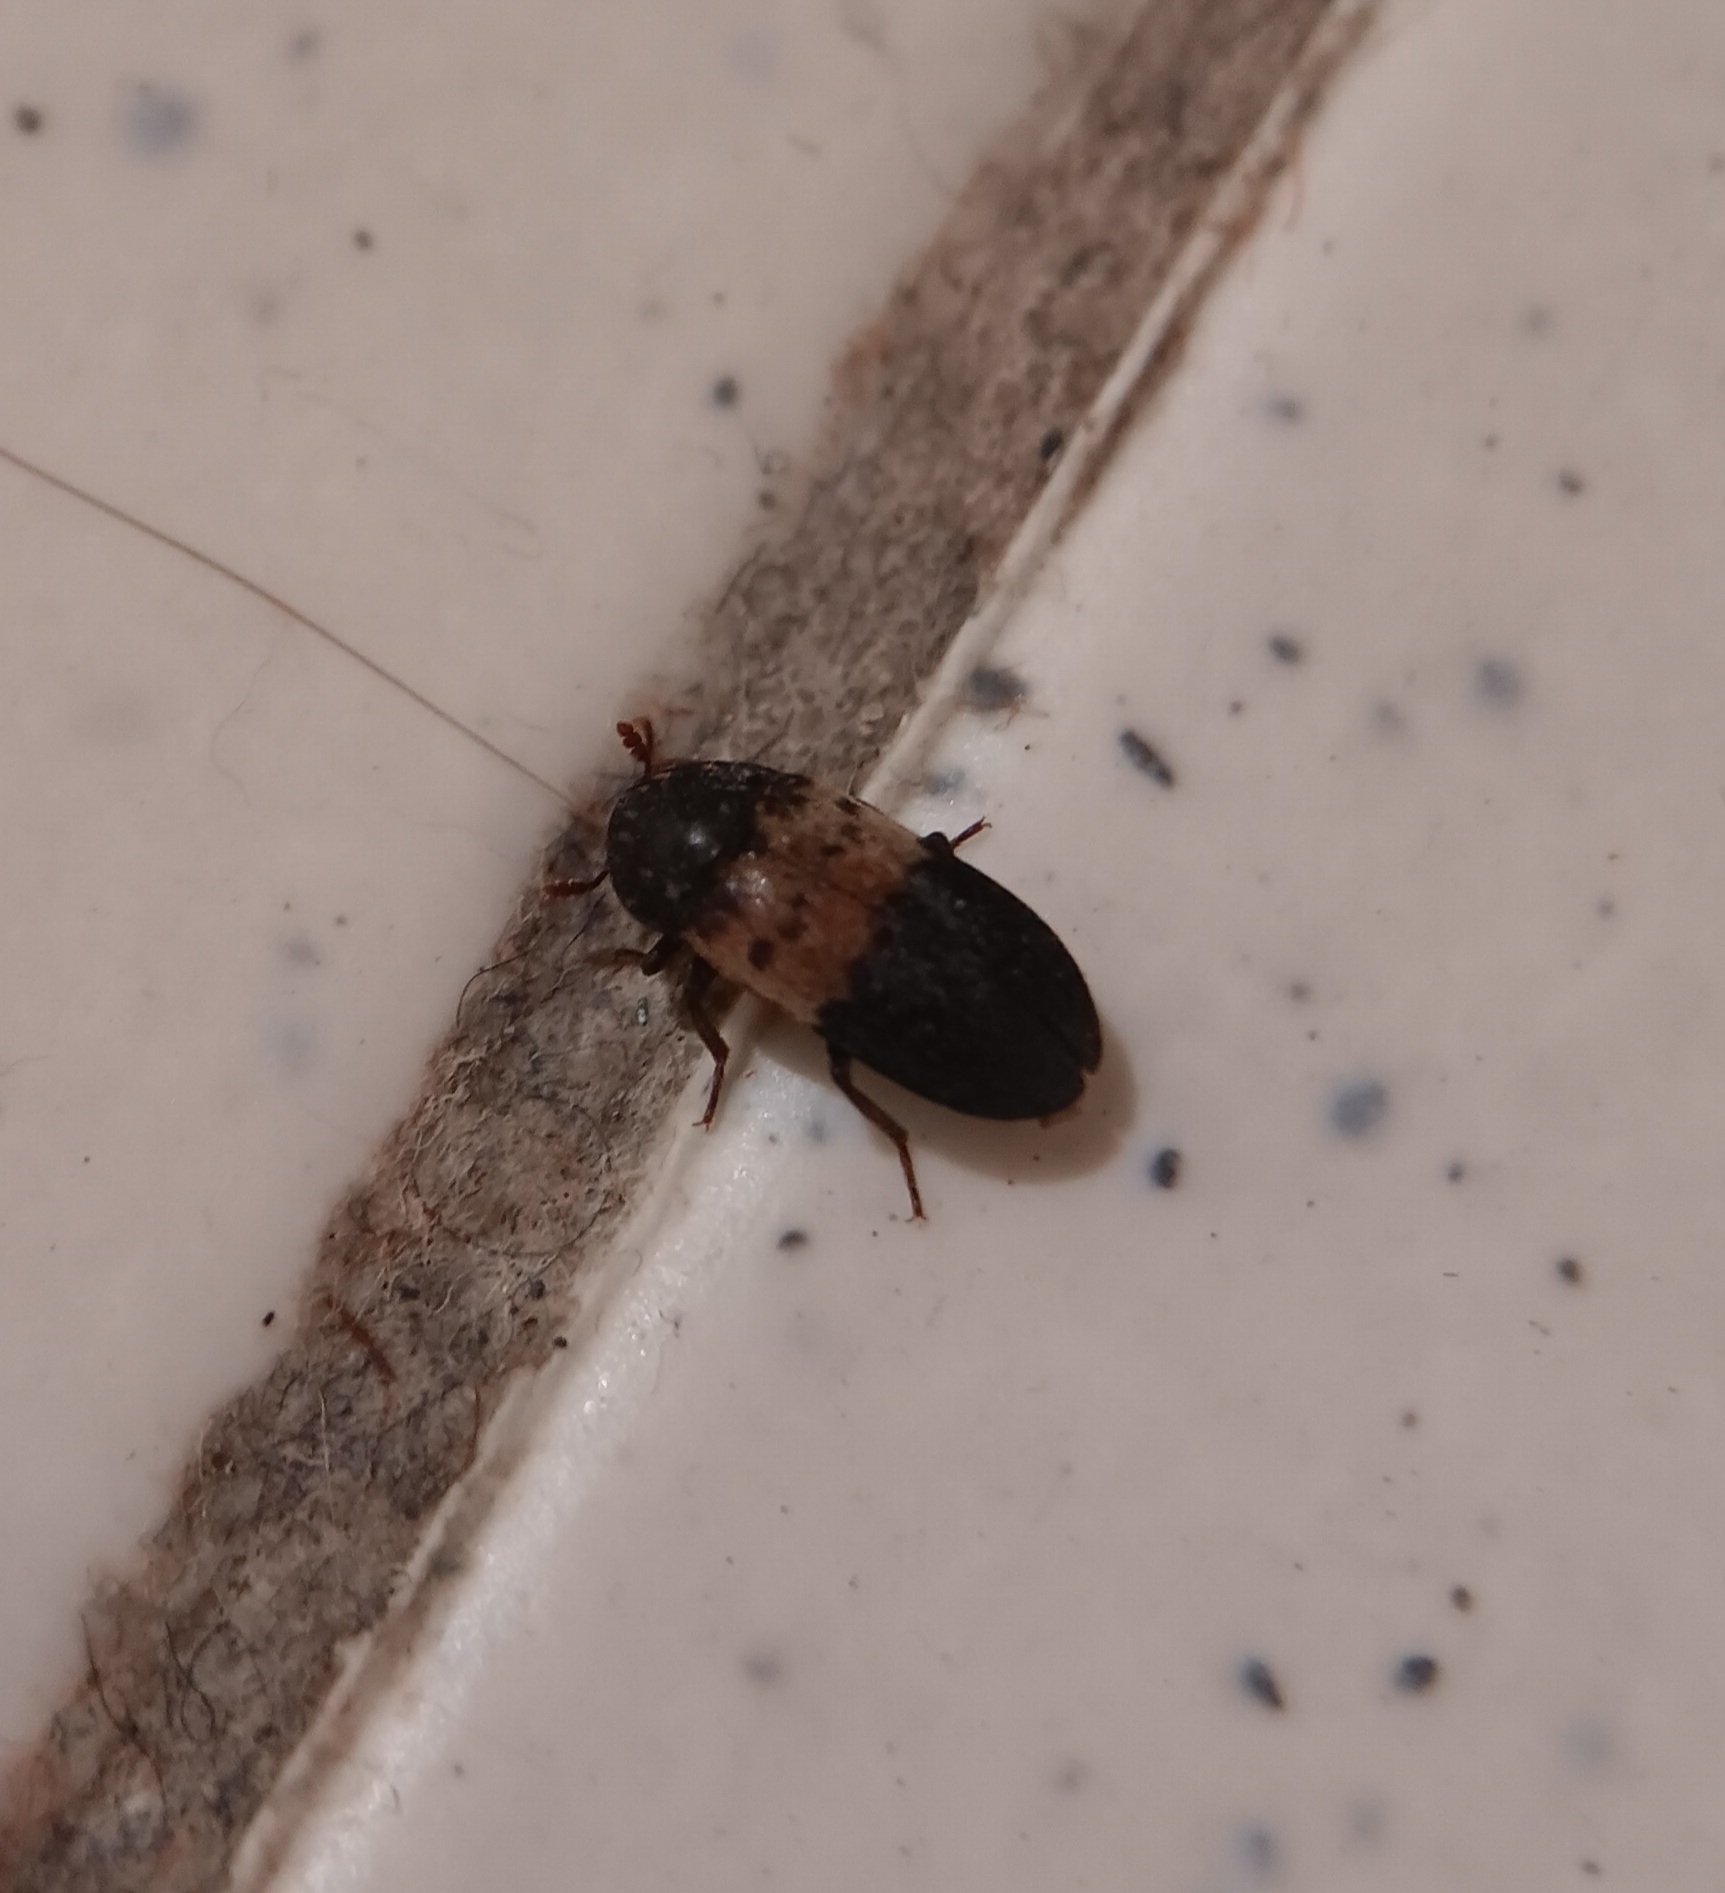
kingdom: Animalia
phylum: Arthropoda
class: Insecta
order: Coleoptera
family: Dermestidae
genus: Dermestes
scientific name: Dermestes lardarius
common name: Larder beetle
